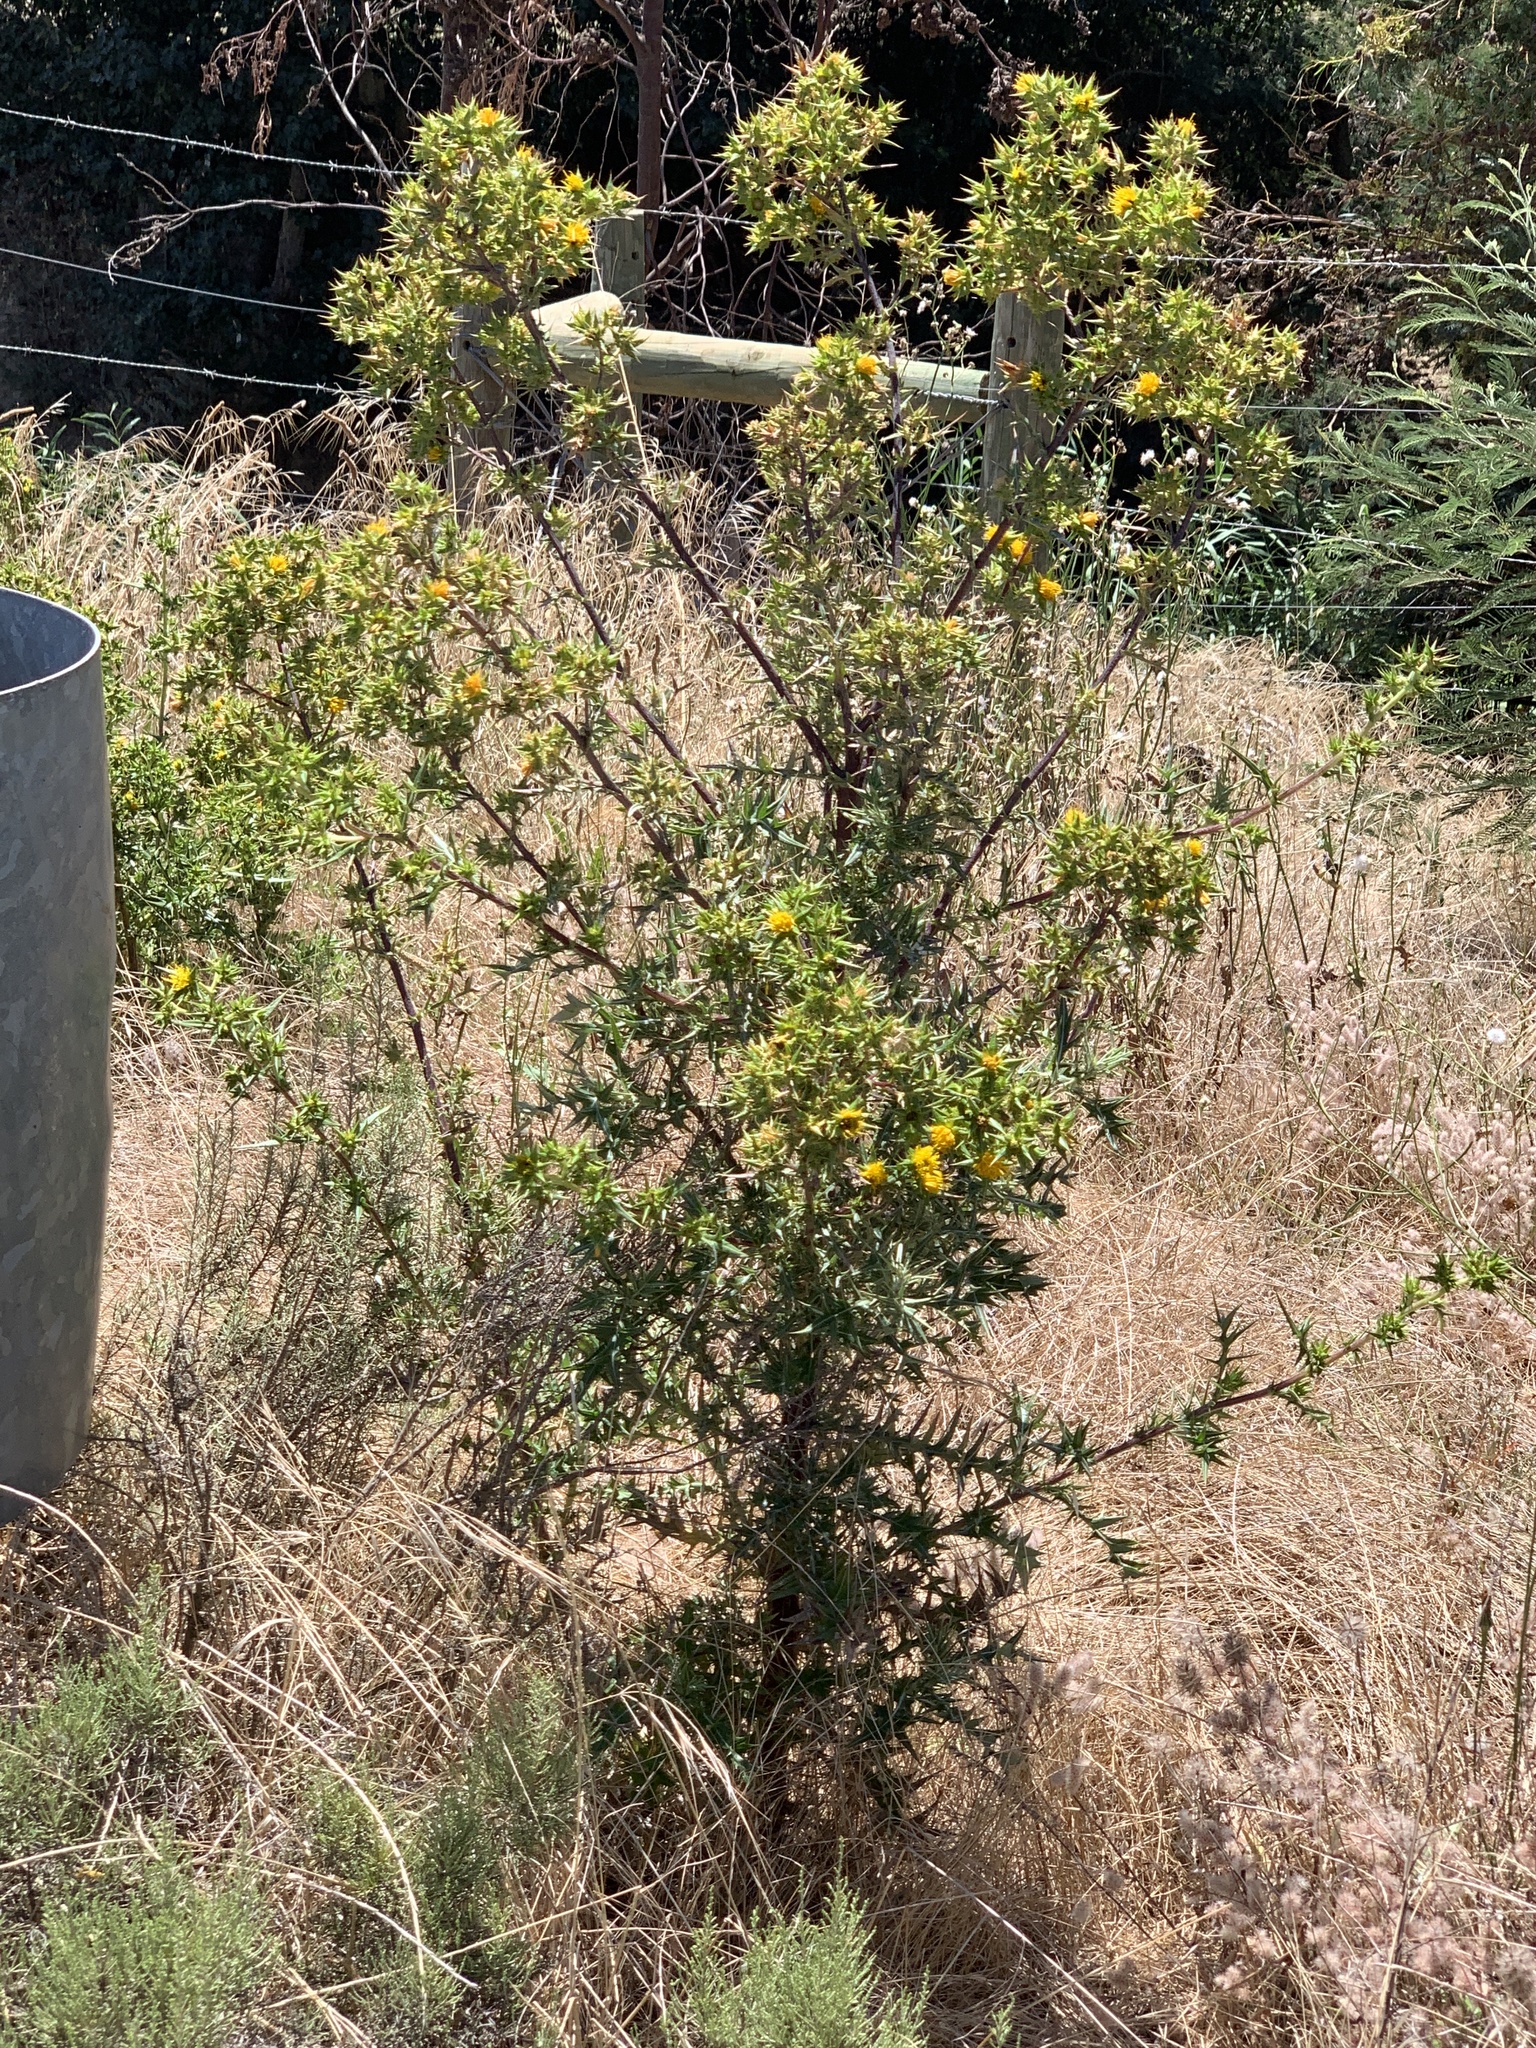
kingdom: Plantae
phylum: Tracheophyta
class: Magnoliopsida
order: Asterales
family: Asteraceae
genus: Berkheya
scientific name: Berkheya rigida
